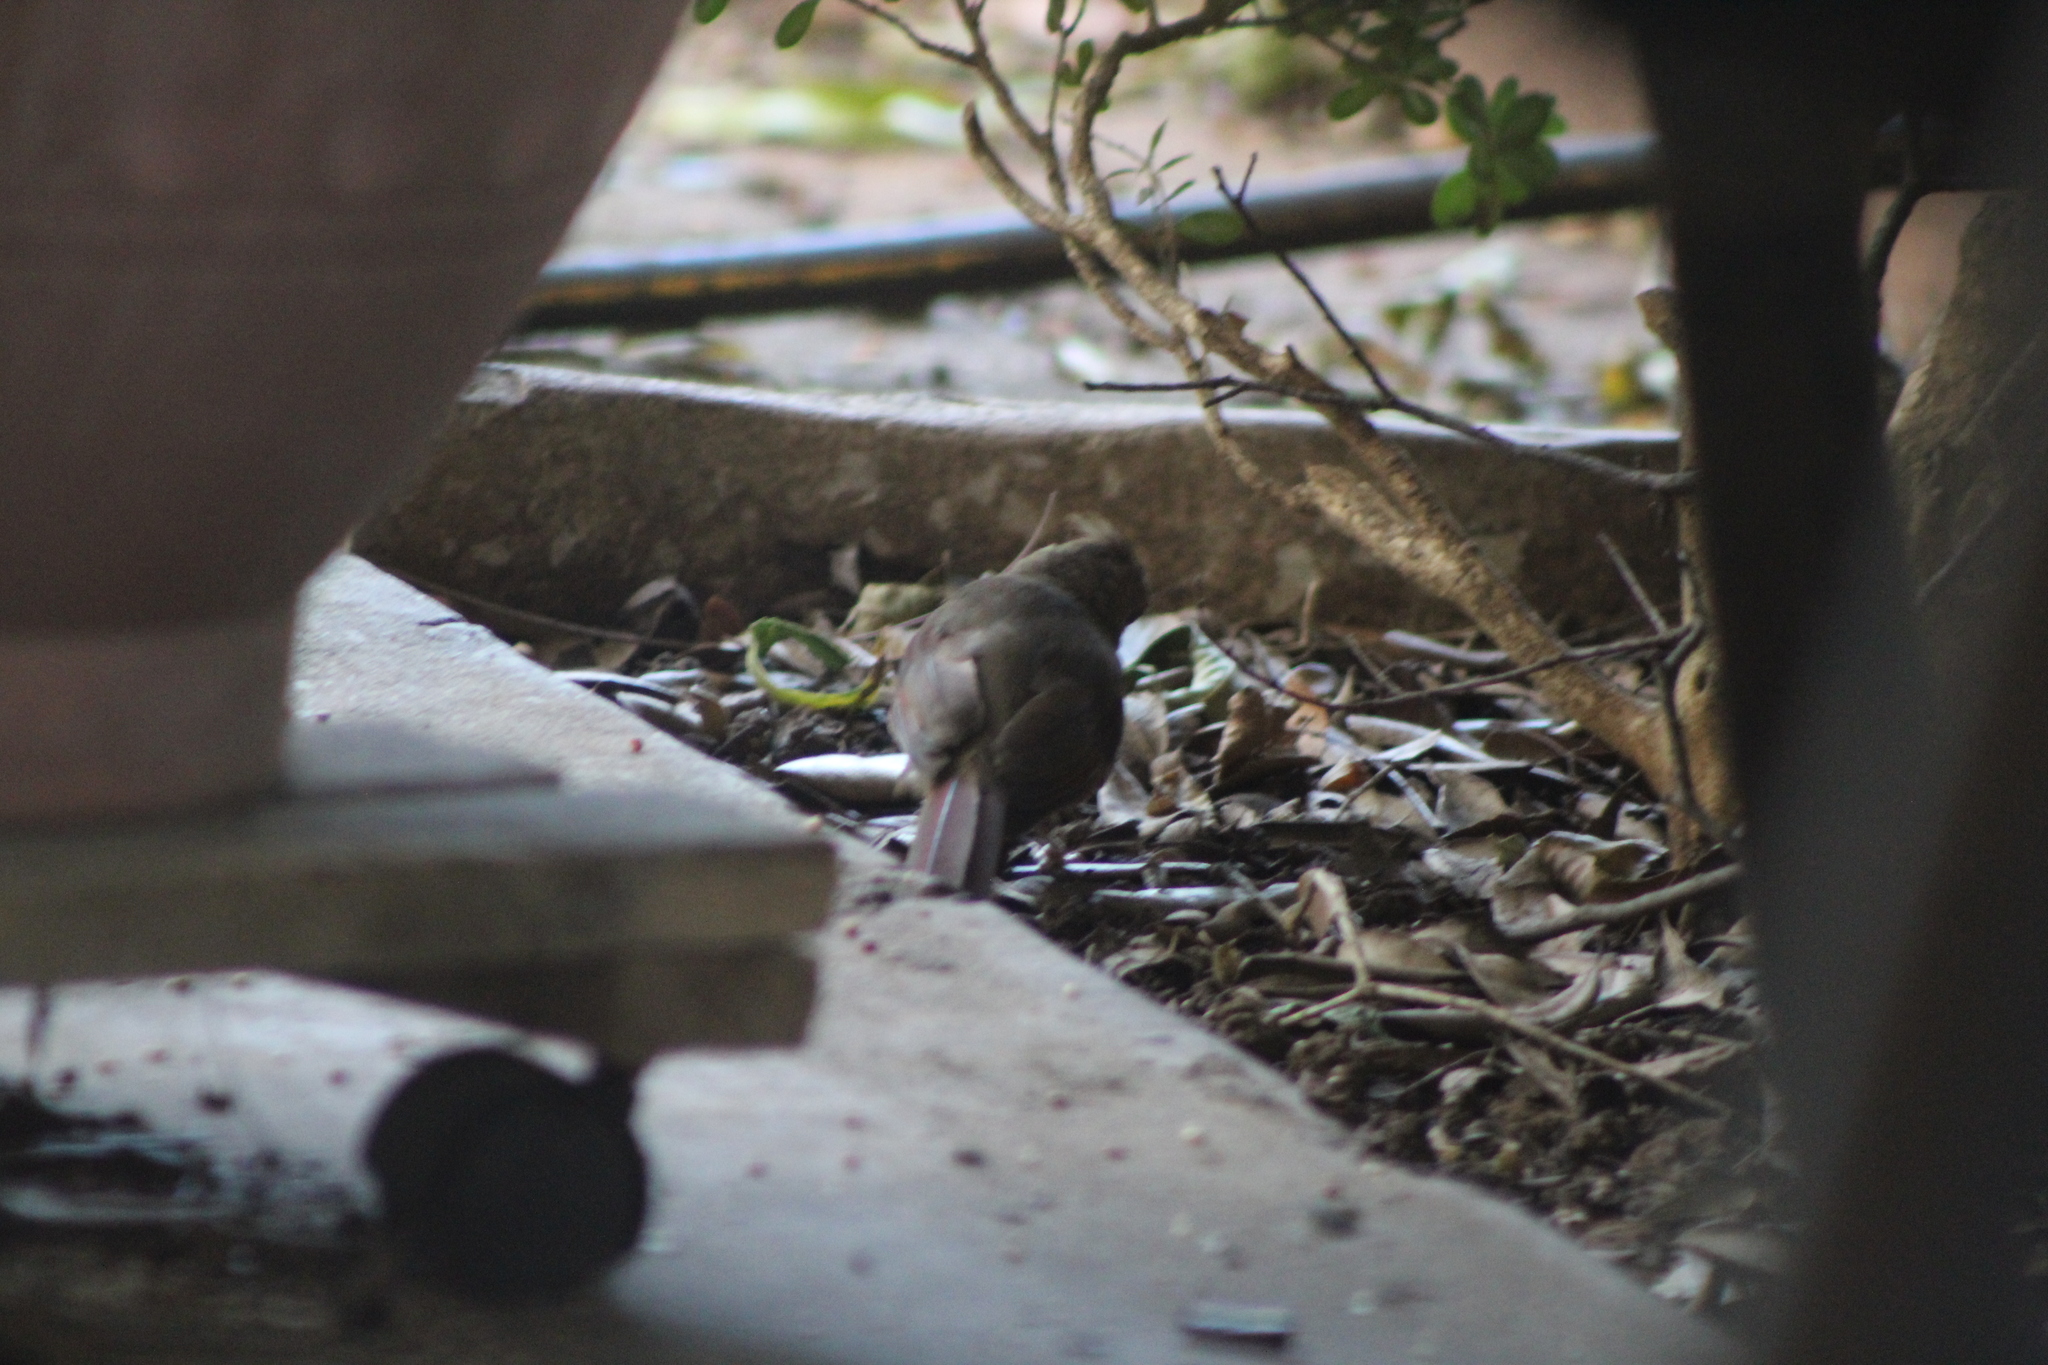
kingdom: Animalia
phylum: Chordata
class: Aves
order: Passeriformes
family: Cardinalidae
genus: Cardinalis
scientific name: Cardinalis cardinalis
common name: Northern cardinal
